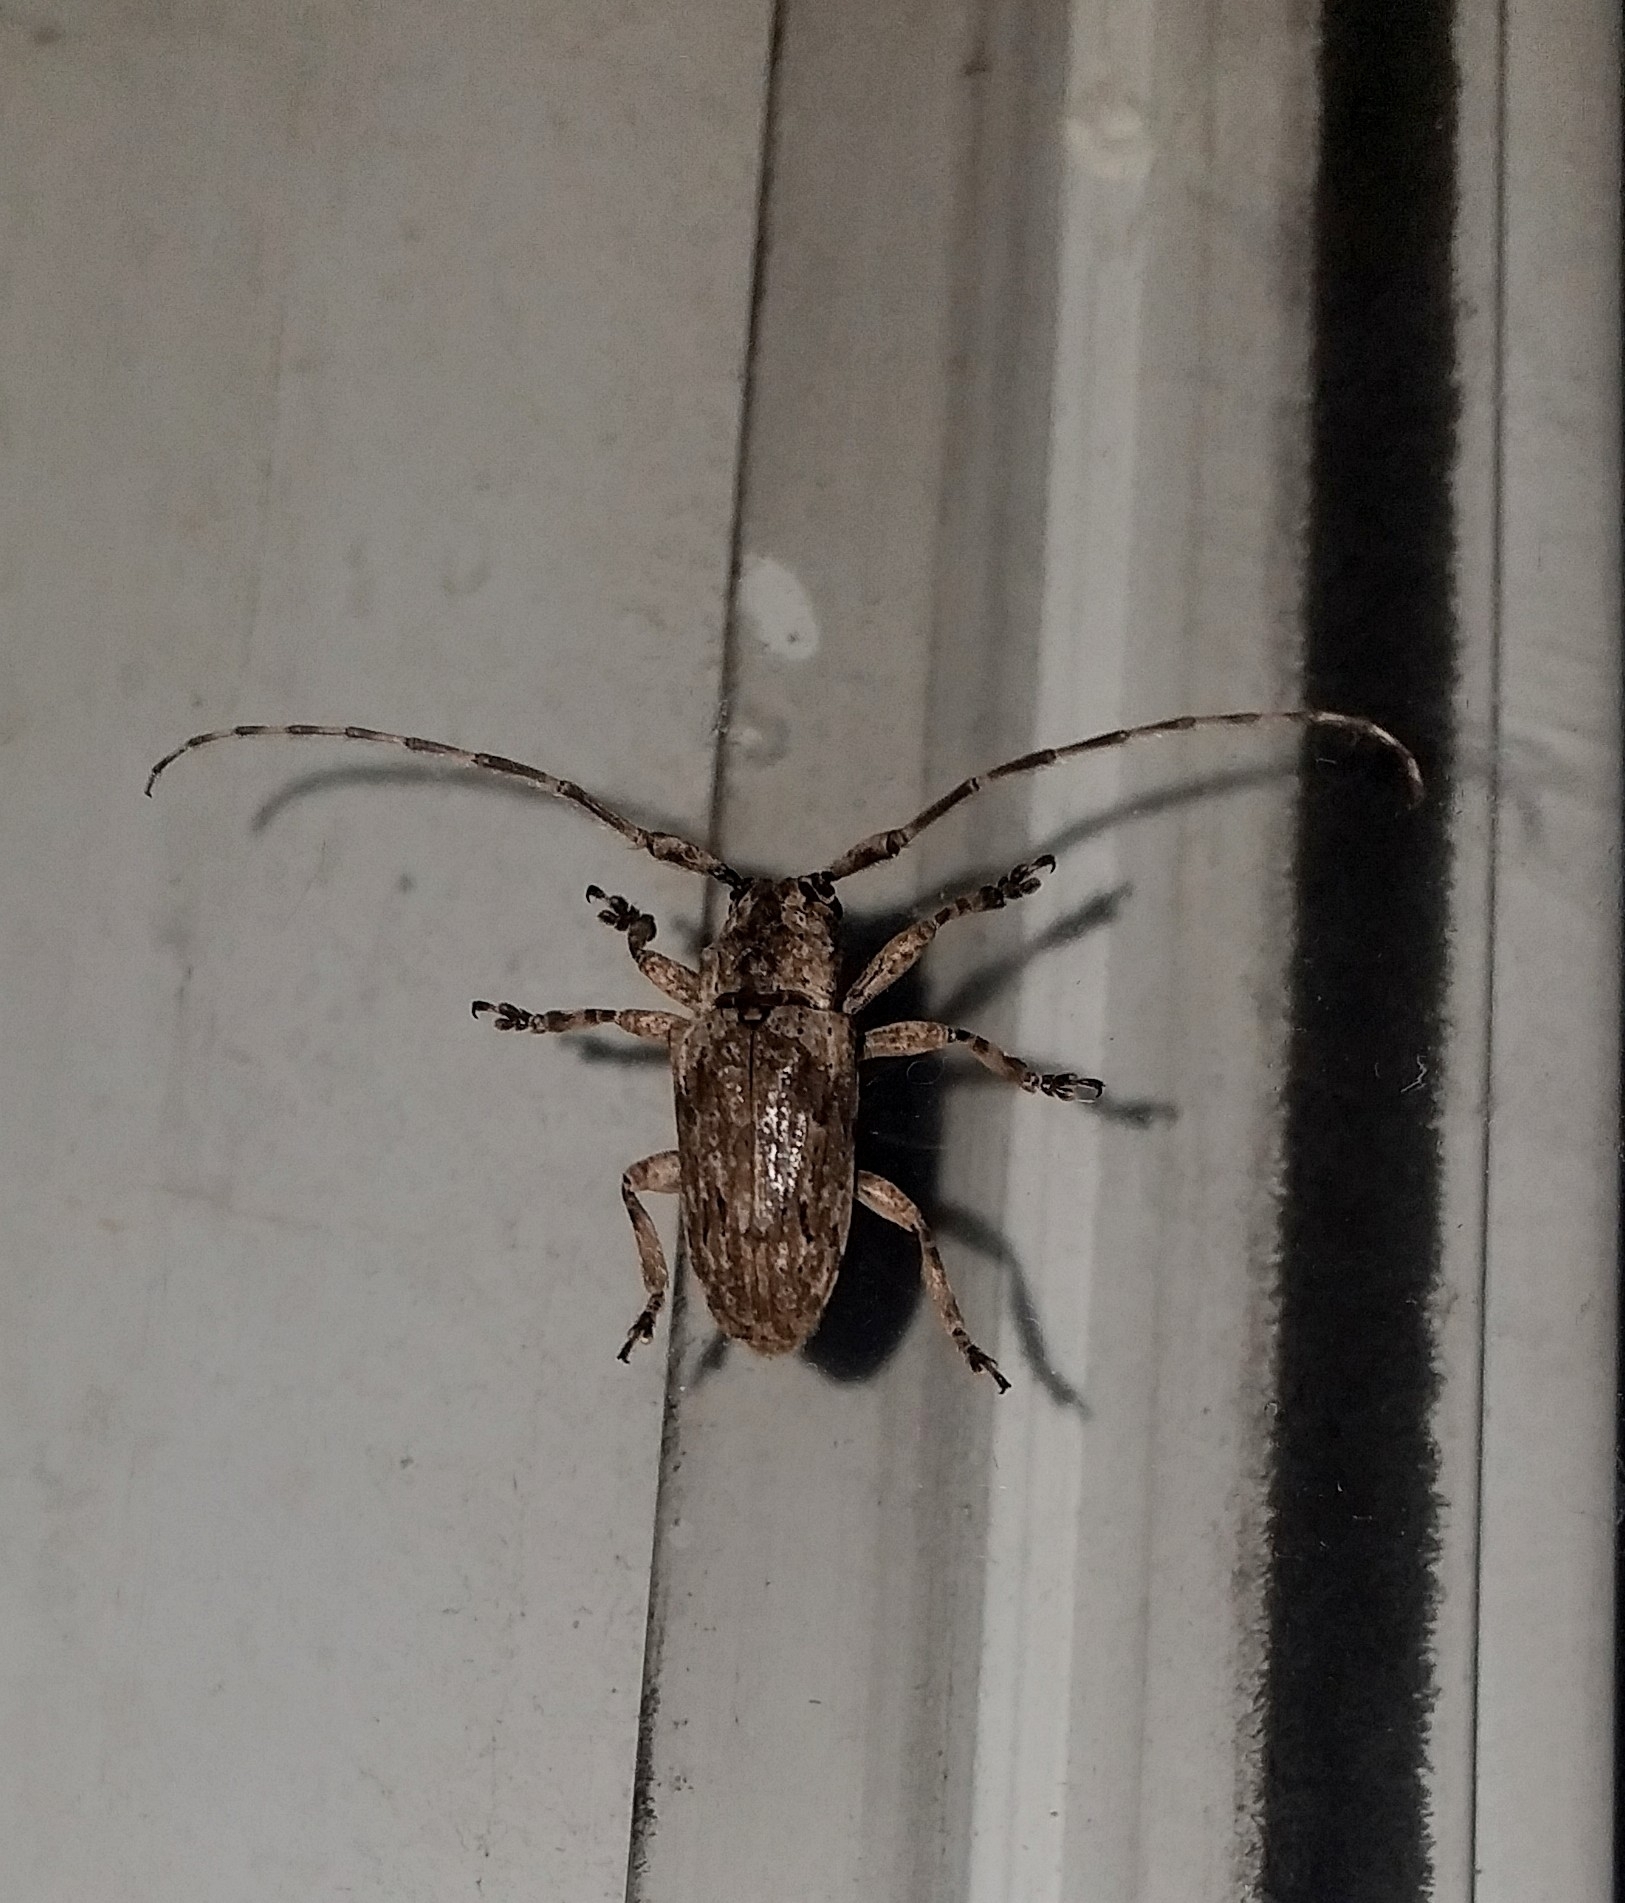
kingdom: Animalia
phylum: Arthropoda
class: Insecta
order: Coleoptera
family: Cerambycidae
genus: Coptops
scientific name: Coptops aedificator
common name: Long-horned beetle
